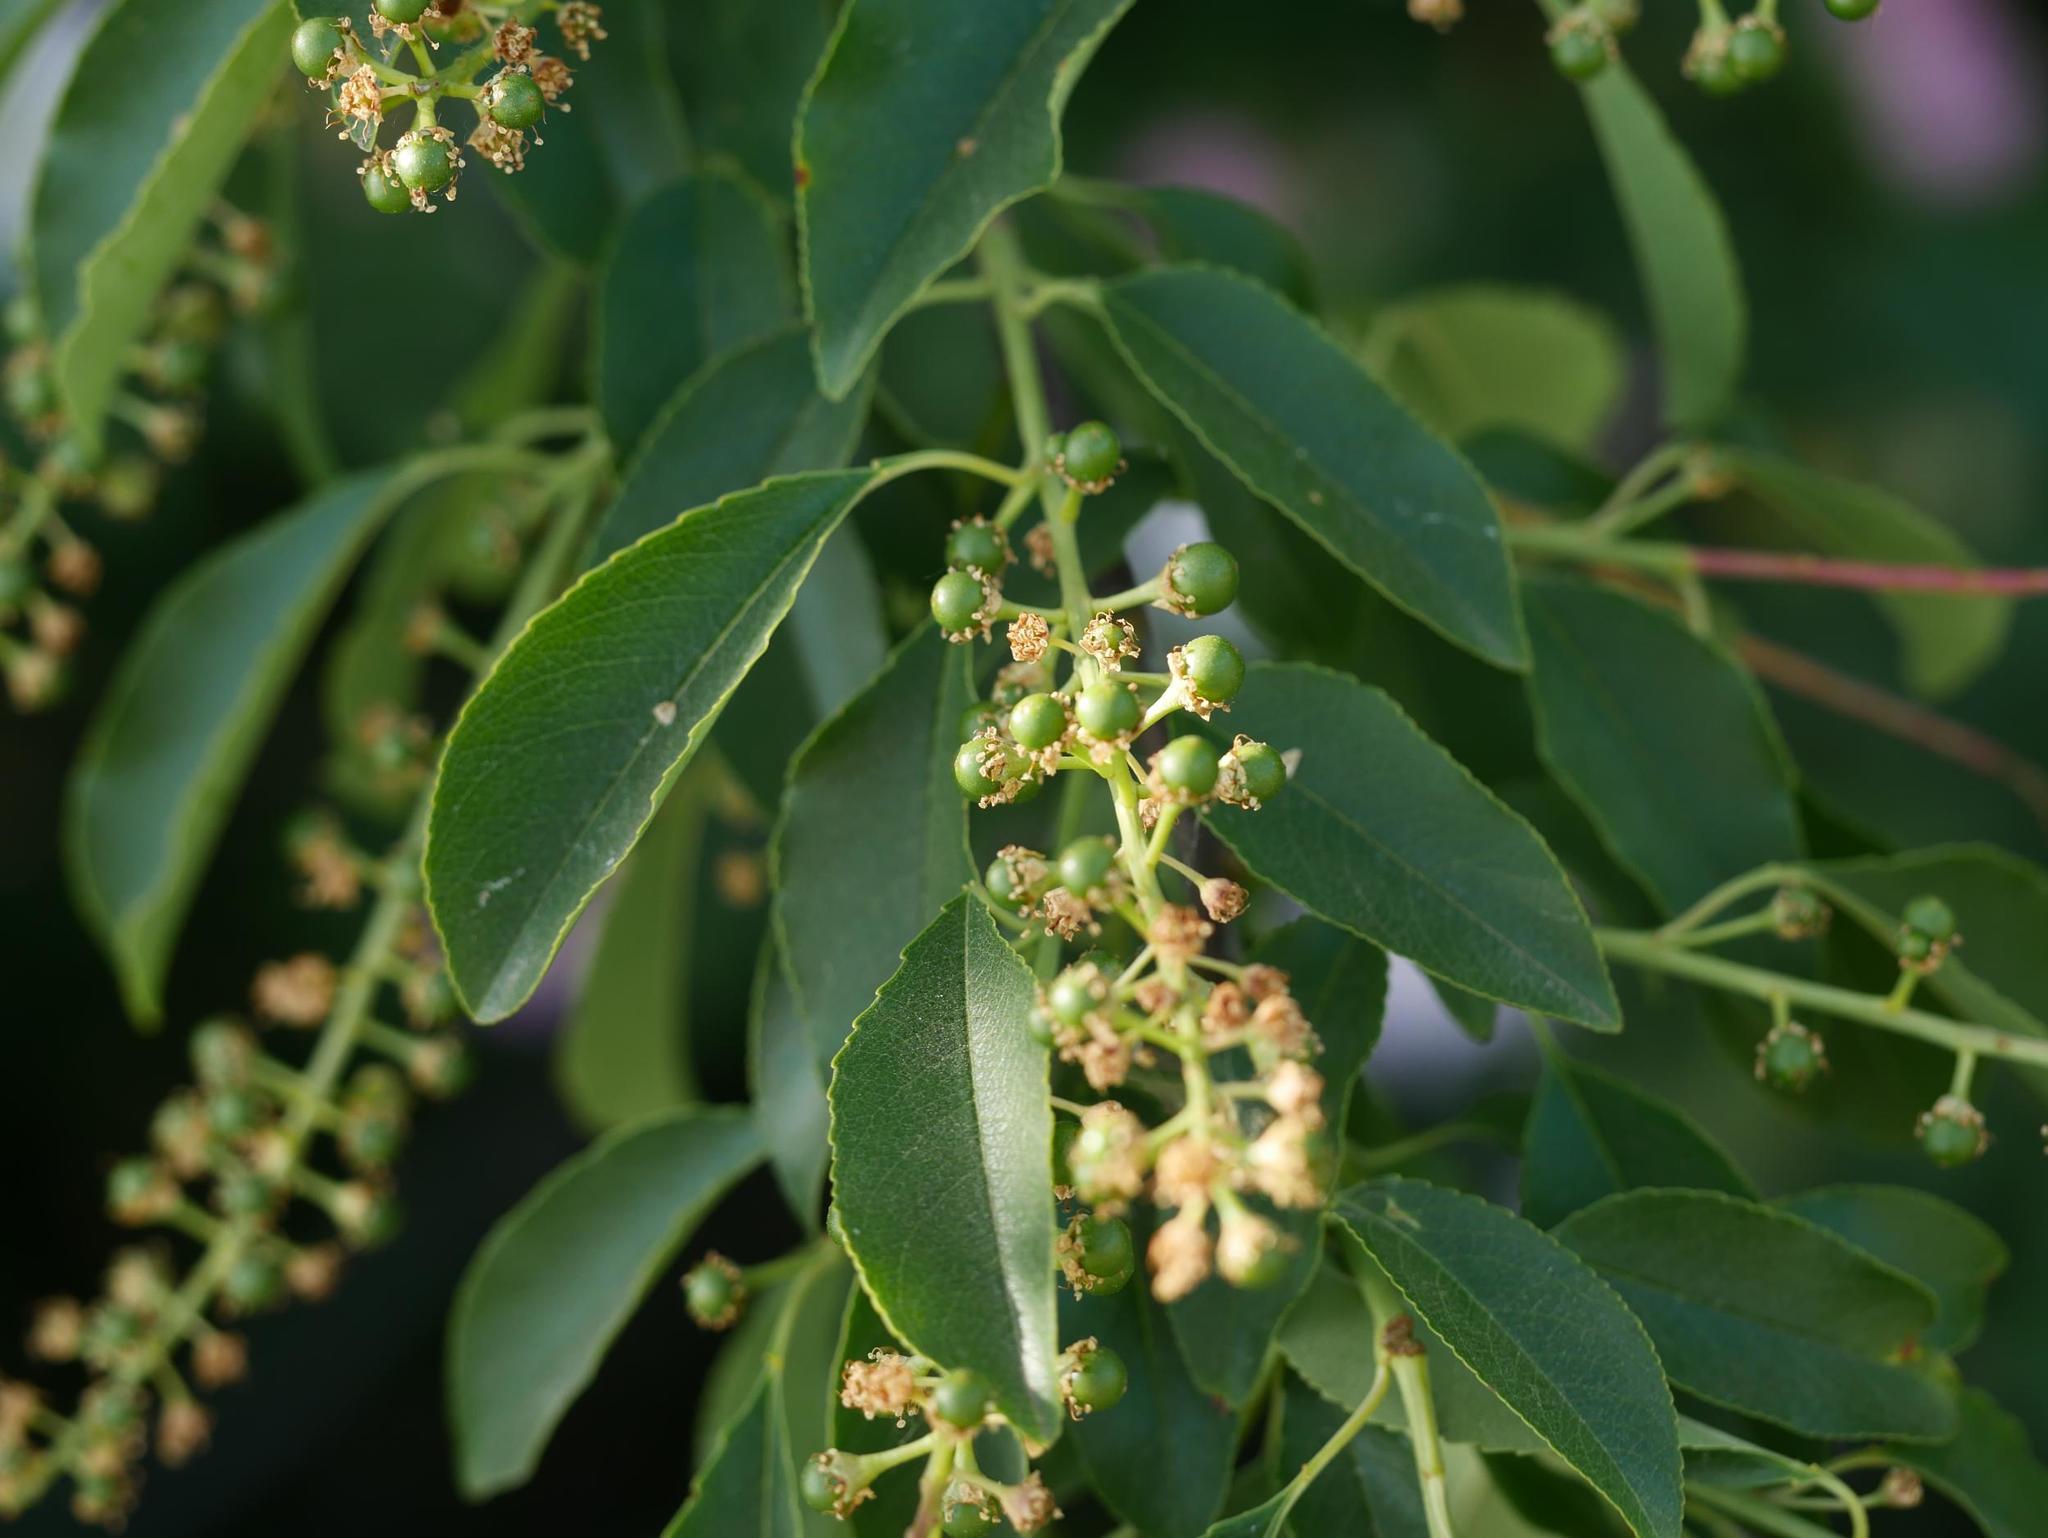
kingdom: Plantae
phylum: Tracheophyta
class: Magnoliopsida
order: Rosales
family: Rosaceae
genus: Prunus
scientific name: Prunus serotina
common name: Black cherry
